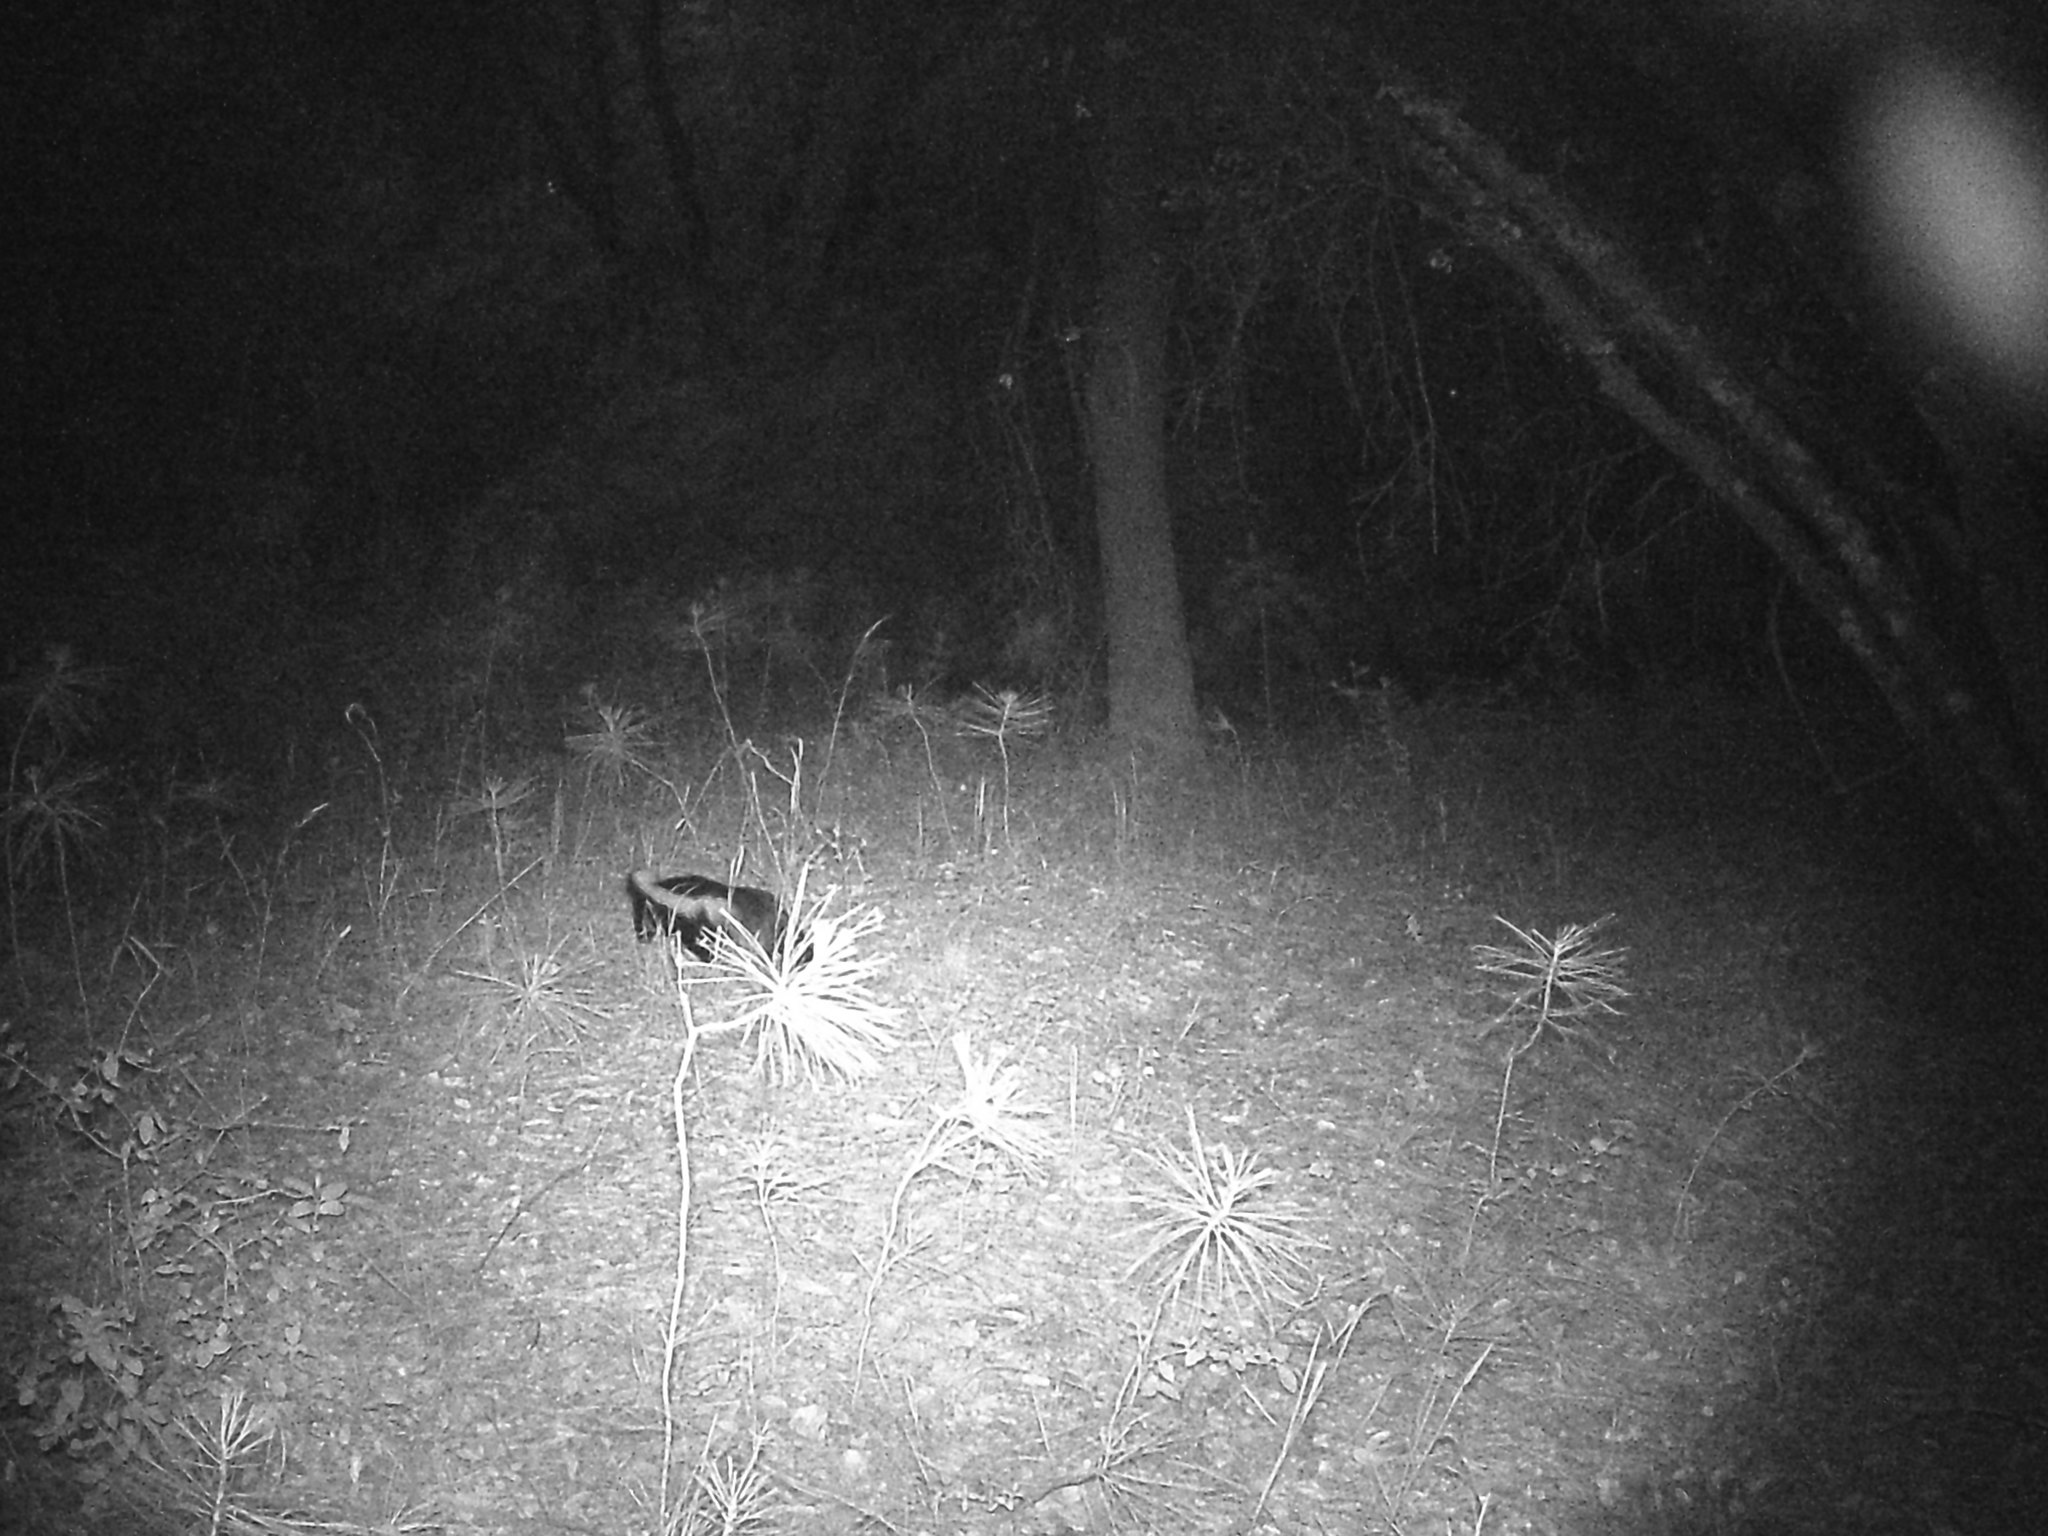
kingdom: Animalia
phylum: Chordata
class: Mammalia
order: Carnivora
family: Mephitidae
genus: Mephitis
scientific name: Mephitis mephitis
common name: Striped skunk
